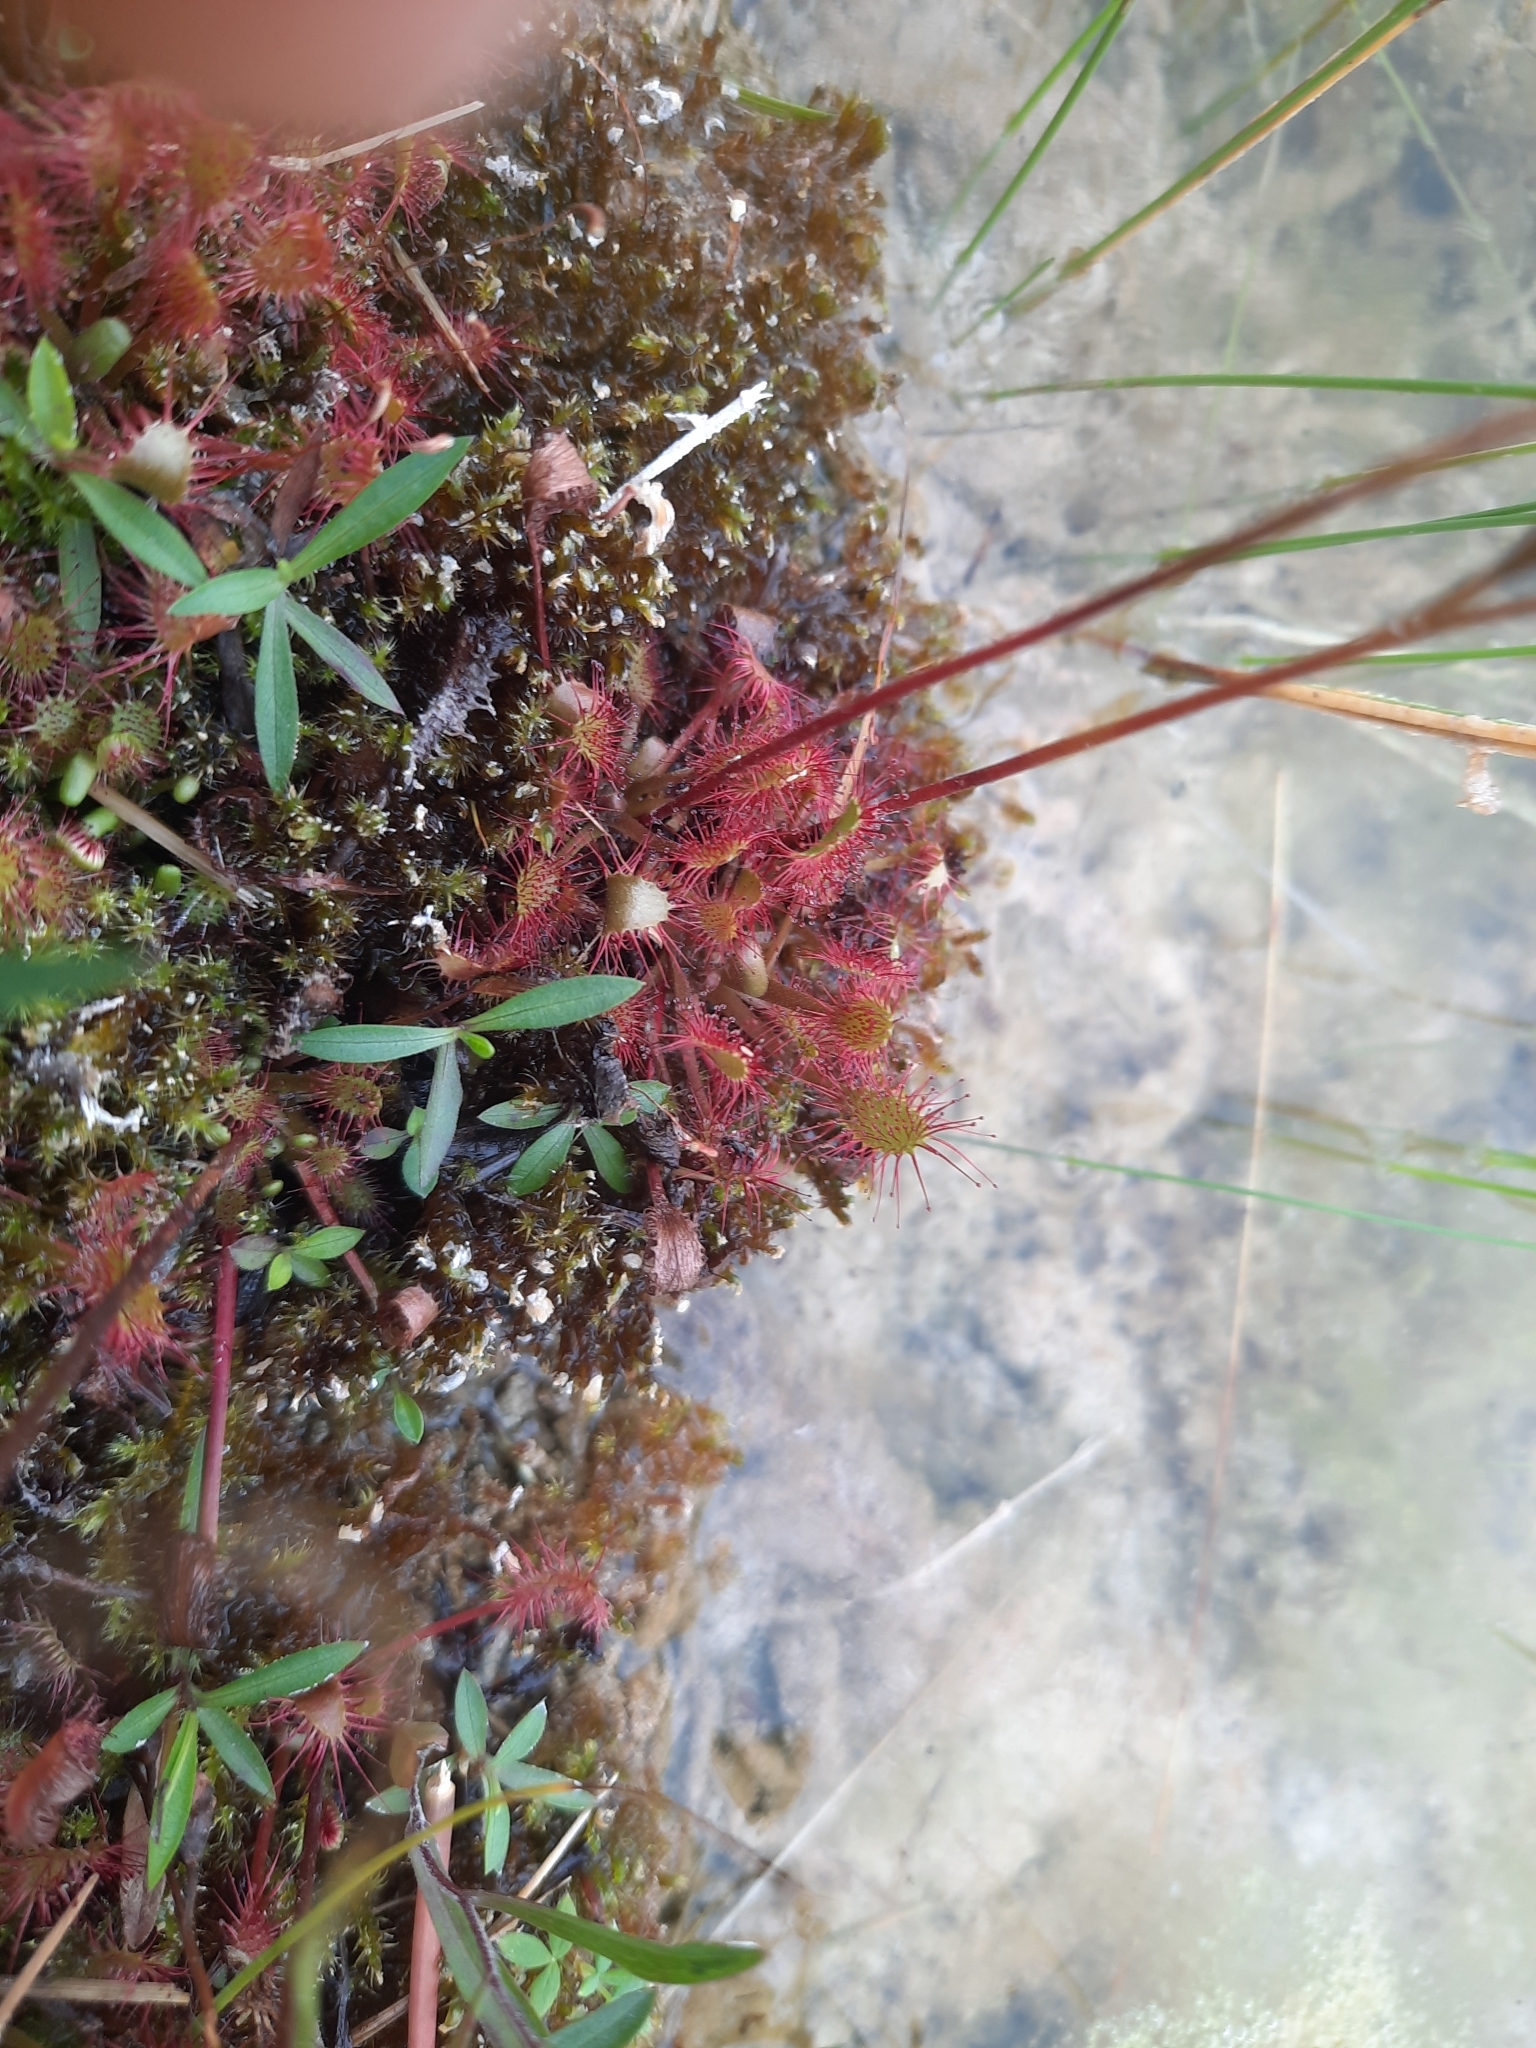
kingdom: Plantae
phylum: Tracheophyta
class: Magnoliopsida
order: Caryophyllales
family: Droseraceae
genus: Drosera
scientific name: Drosera anglica
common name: Great sundew
